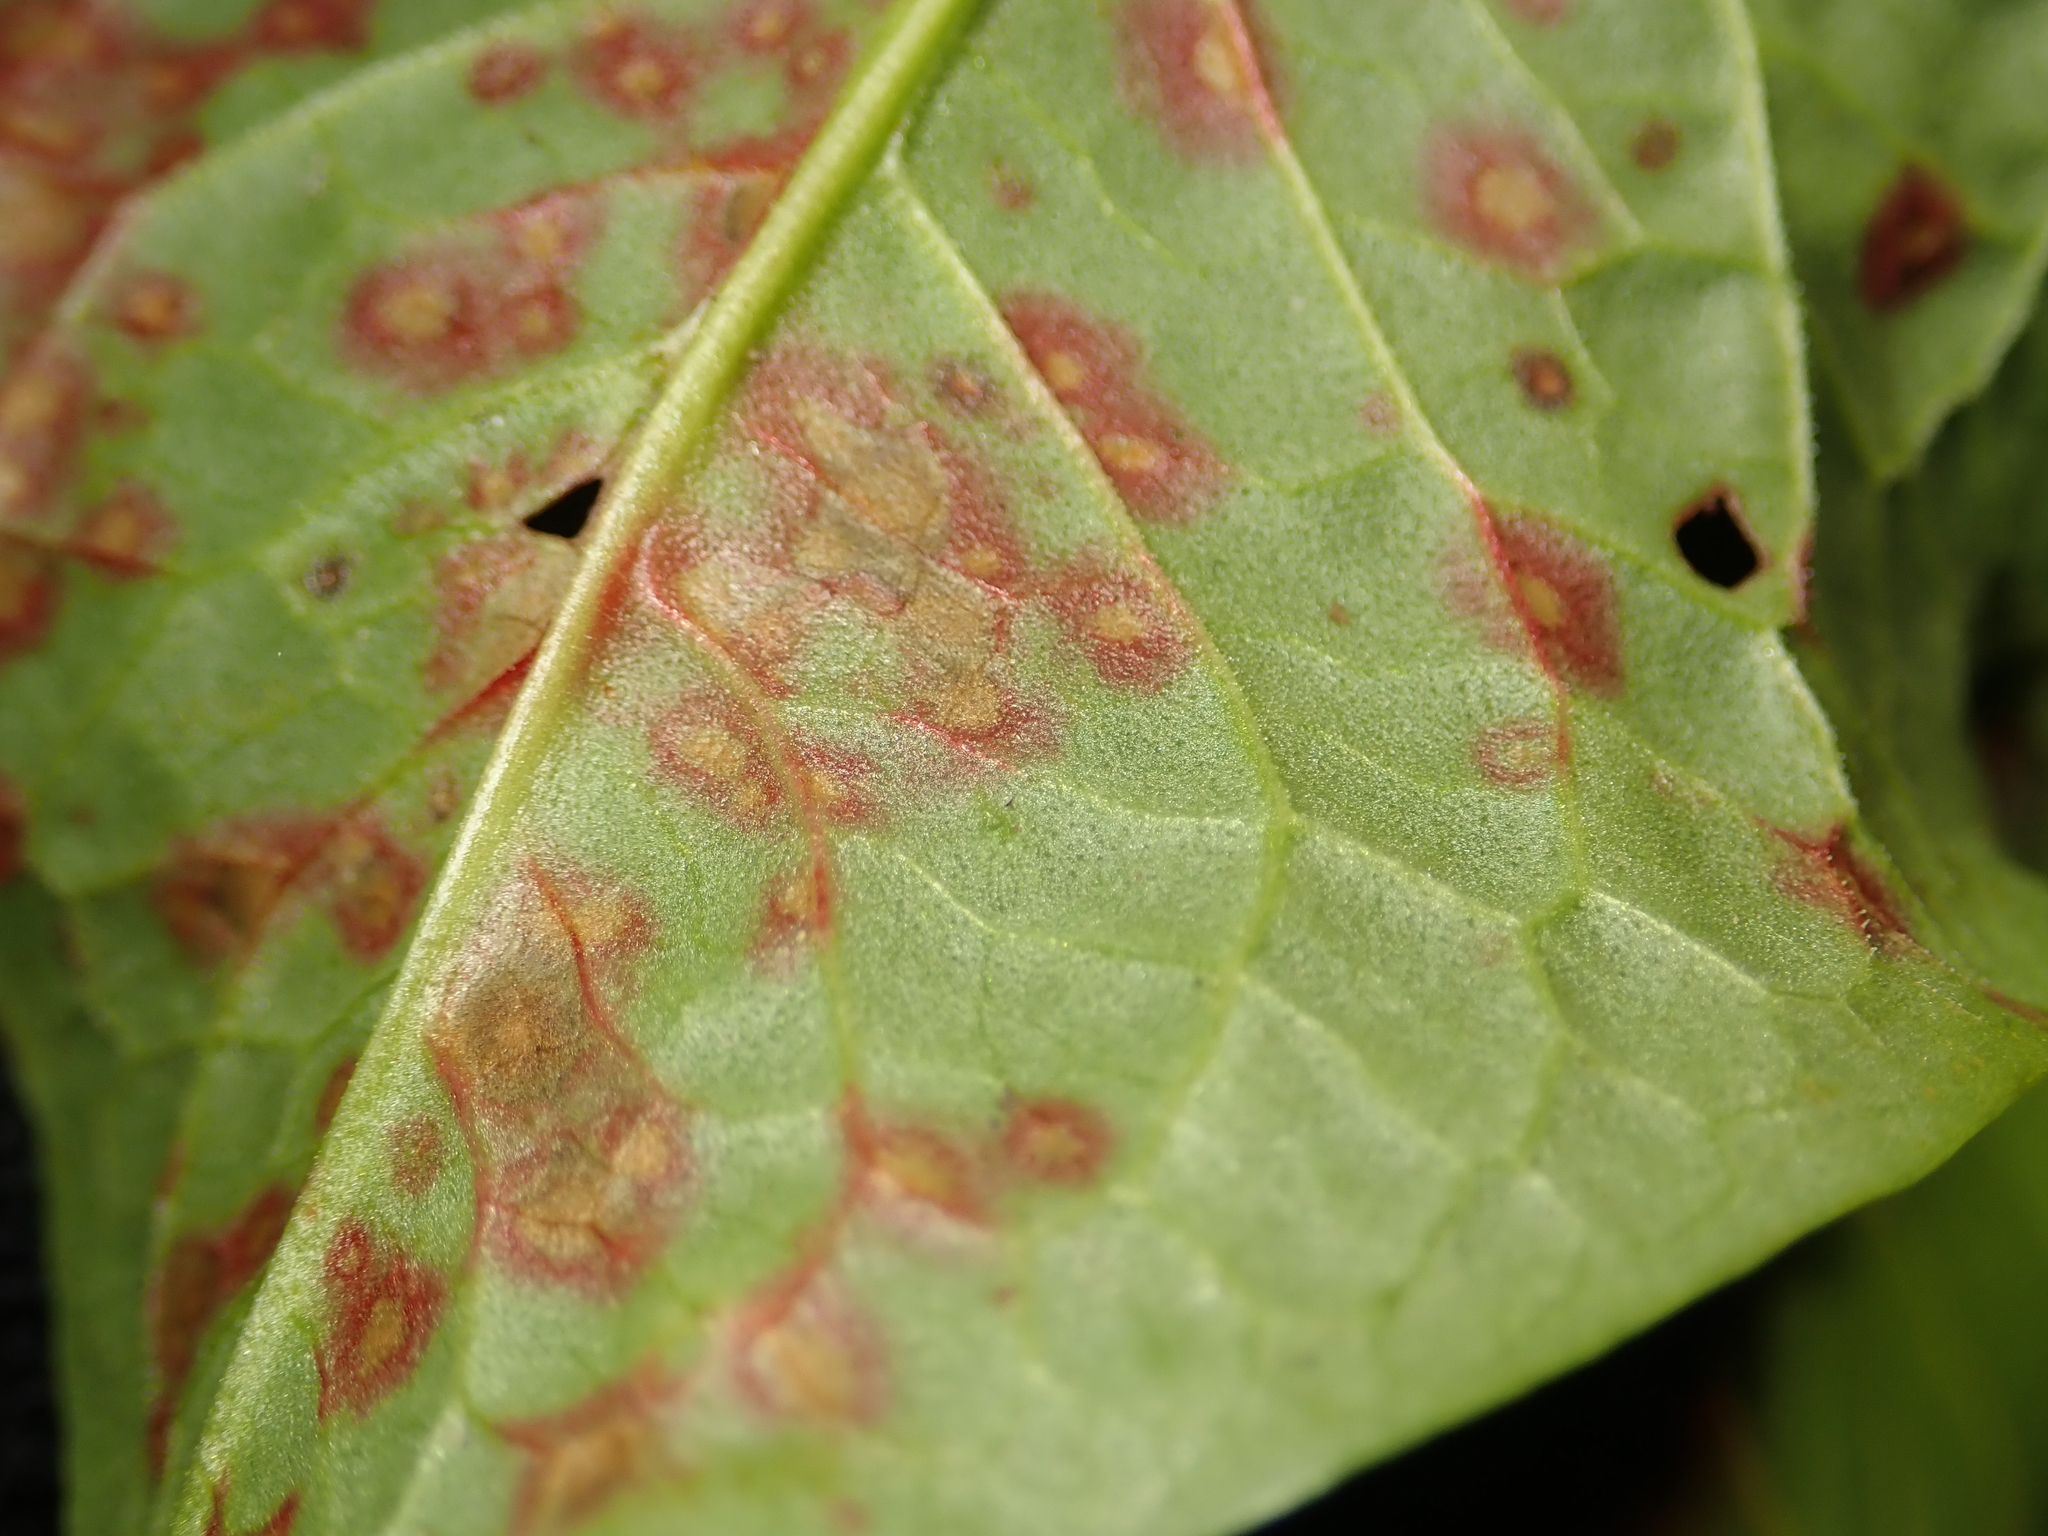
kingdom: Fungi
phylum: Ascomycota
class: Dothideomycetes
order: Mycosphaerellales
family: Mycosphaerellaceae
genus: Ramularia
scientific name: Ramularia rubella
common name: Red dock spot
